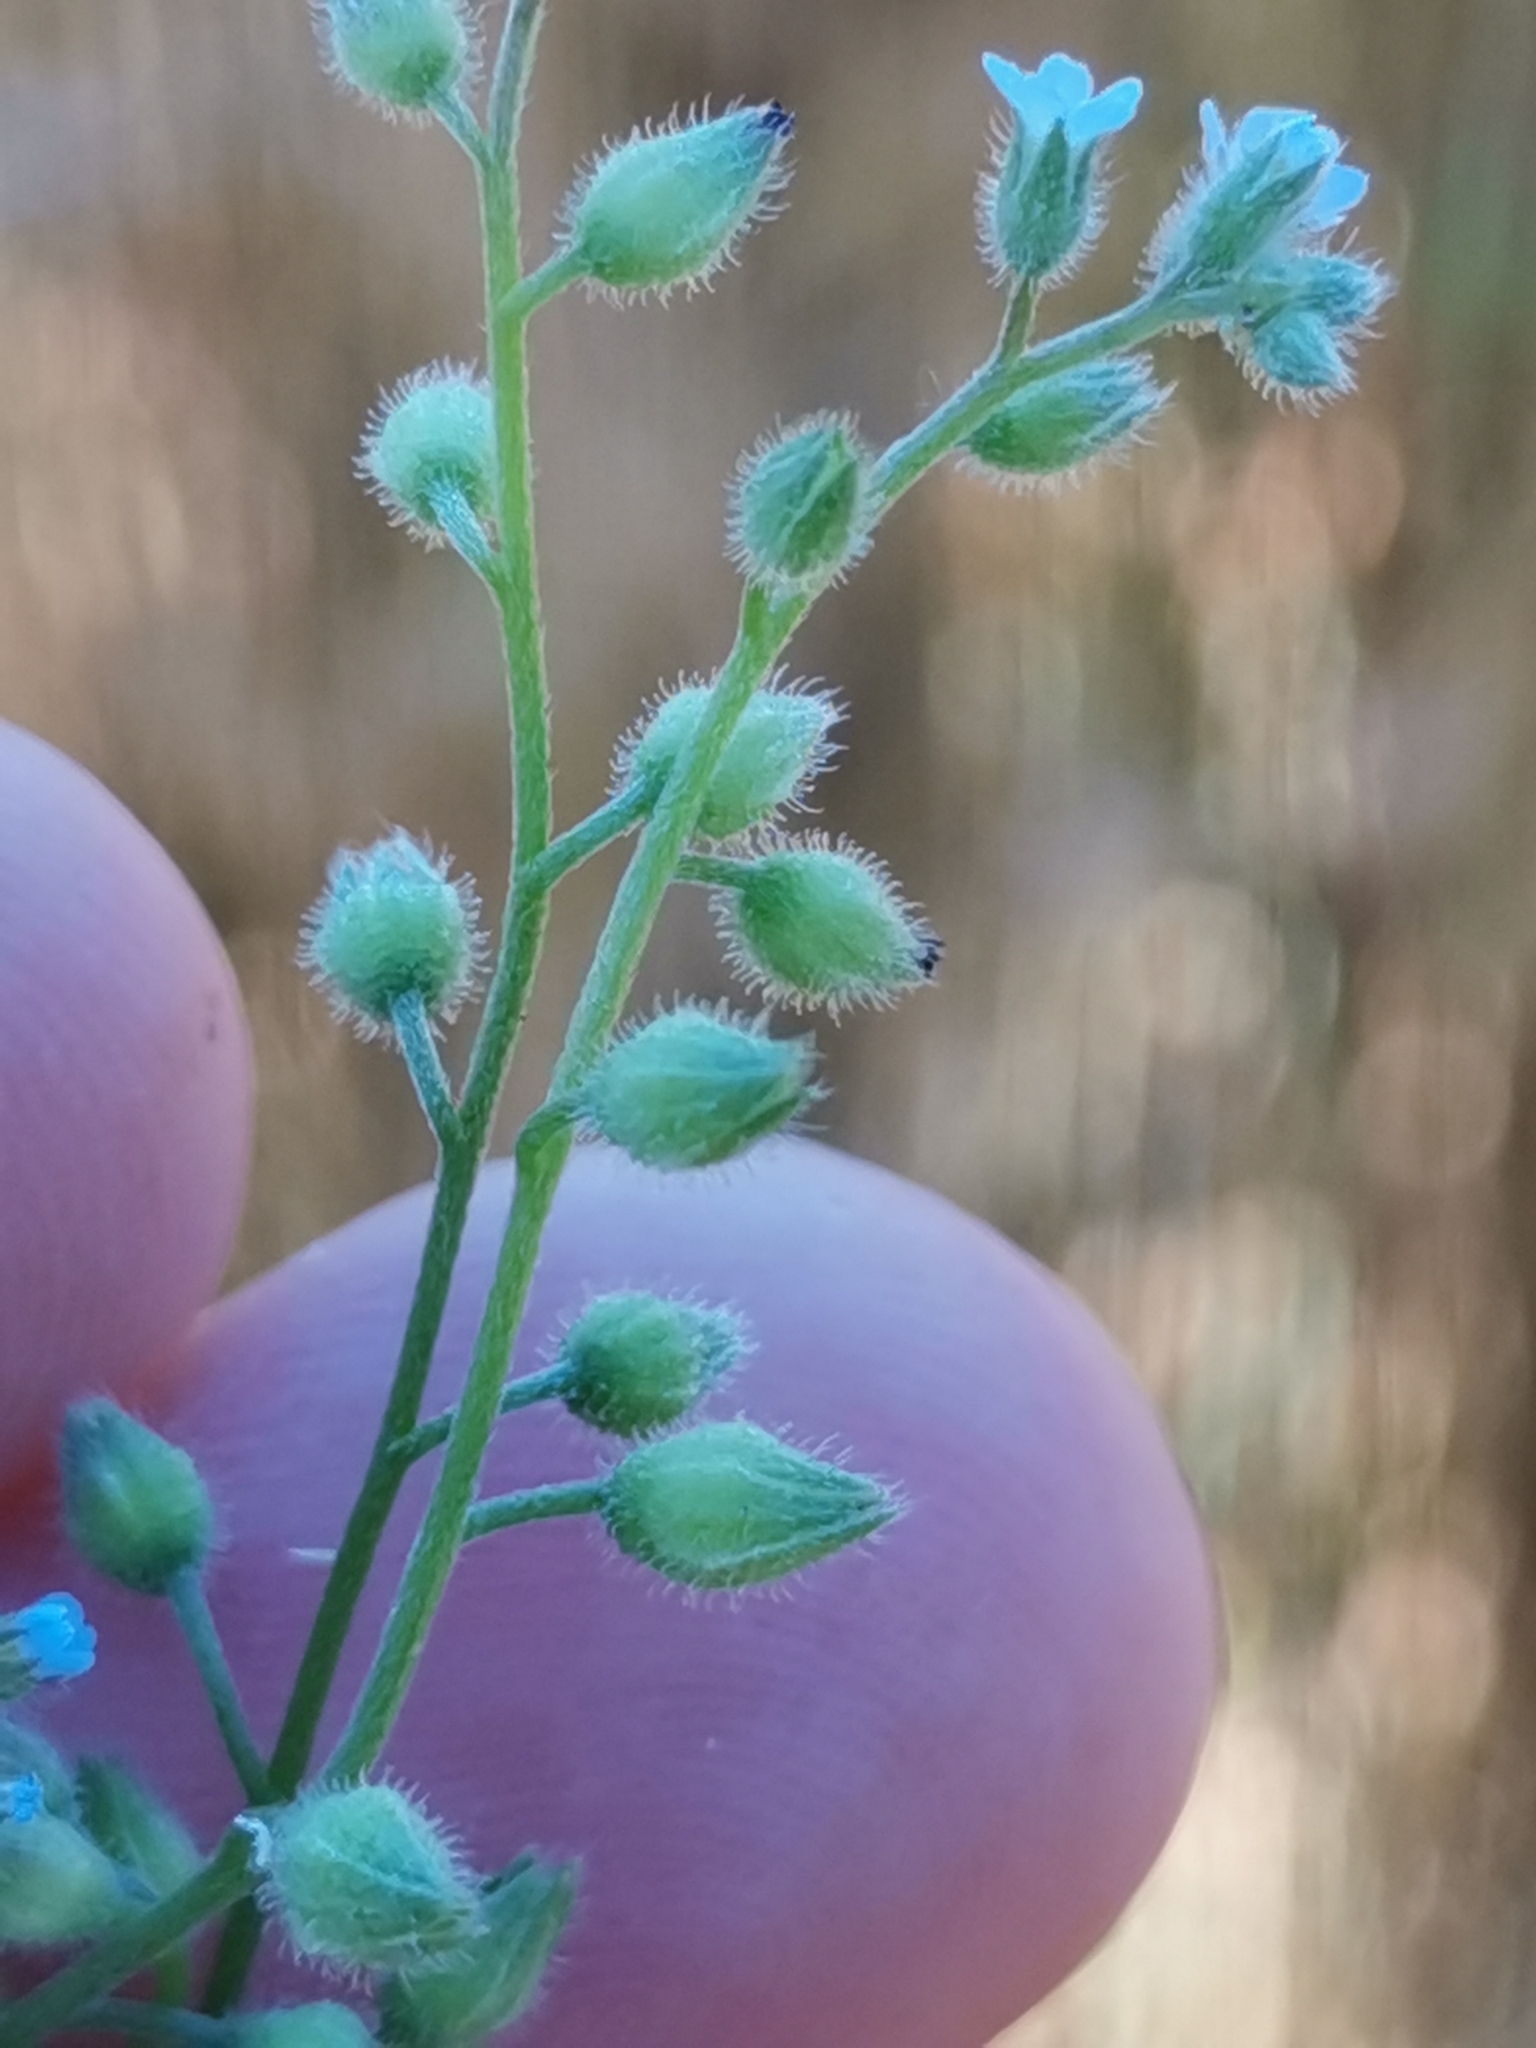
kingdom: Plantae
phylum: Tracheophyta
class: Magnoliopsida
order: Boraginales
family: Boraginaceae
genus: Myosotis
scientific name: Myosotis arvensis
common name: Field forget-me-not
